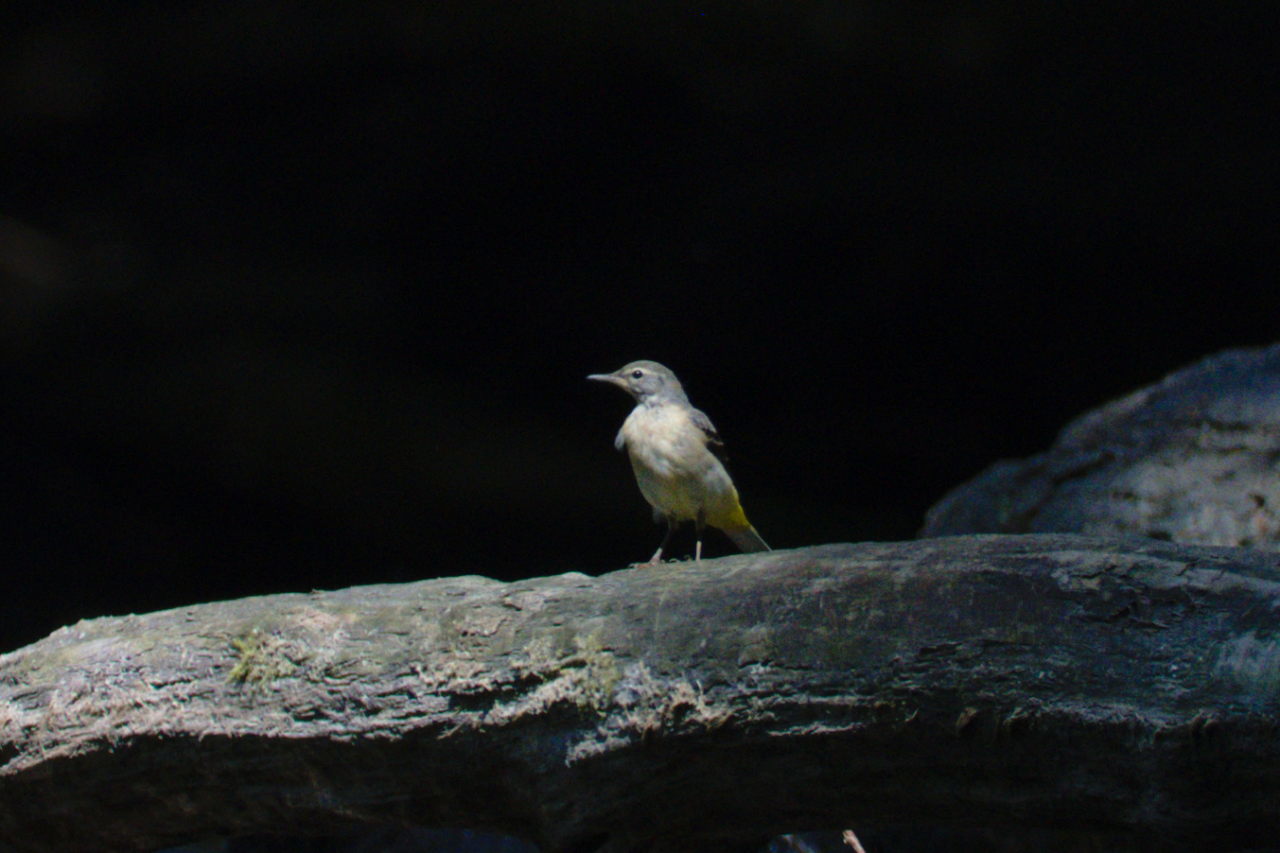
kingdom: Animalia
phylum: Chordata
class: Aves
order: Passeriformes
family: Motacillidae
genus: Motacilla
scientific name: Motacilla cinerea
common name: Grey wagtail
